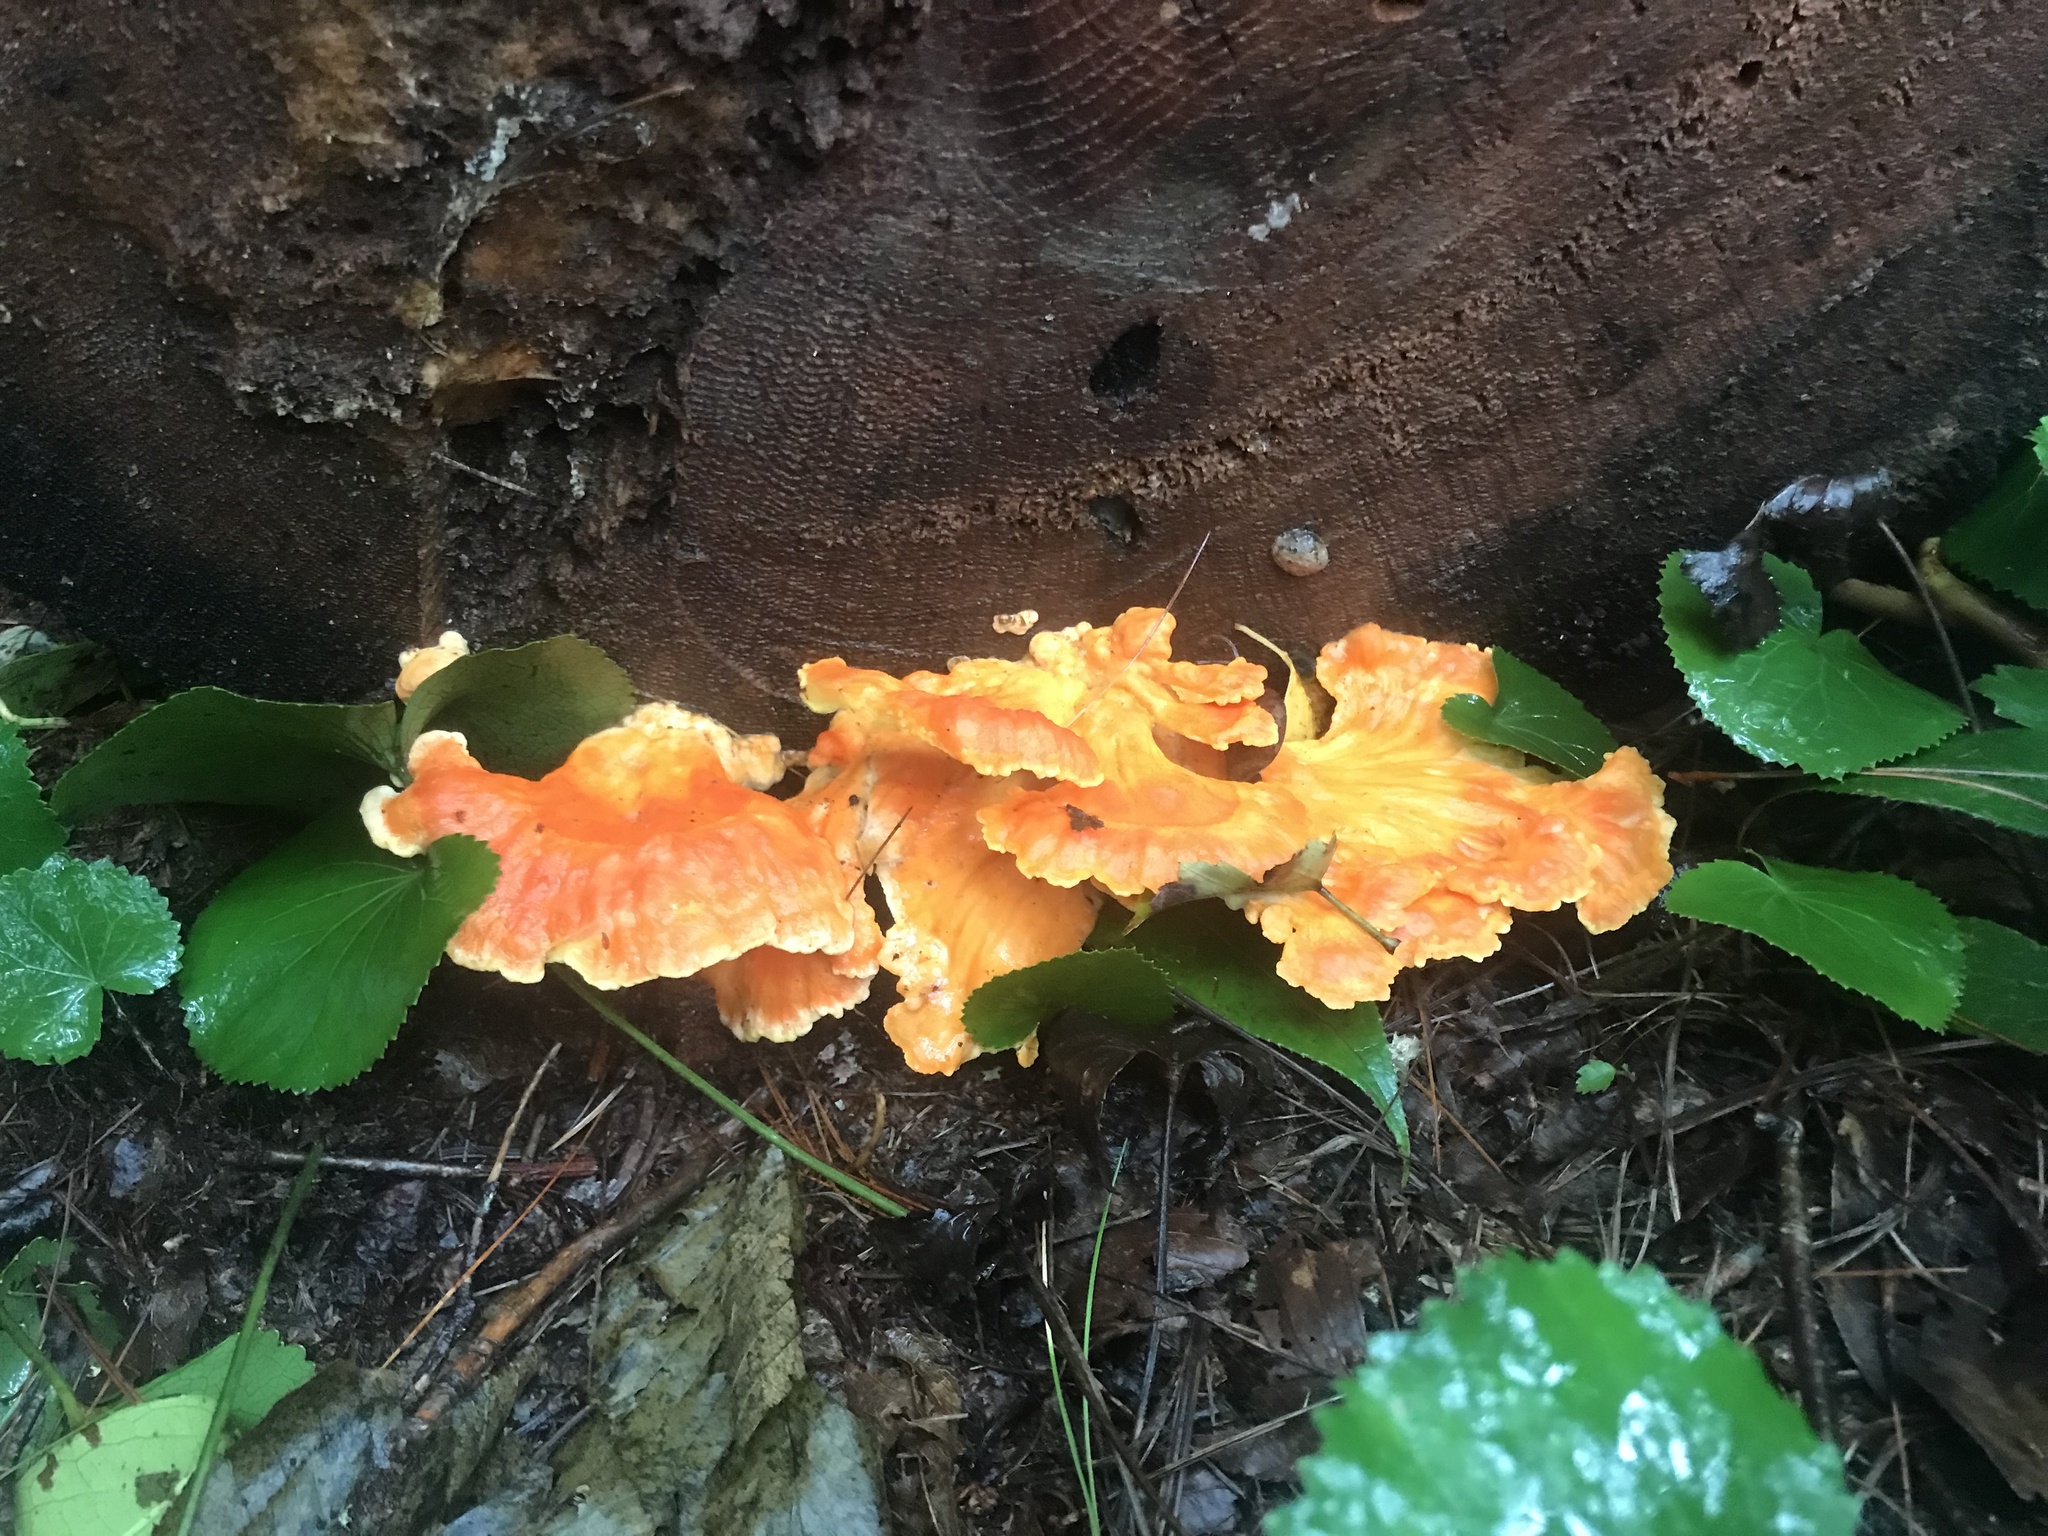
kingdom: Fungi
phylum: Basidiomycota
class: Agaricomycetes
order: Polyporales
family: Laetiporaceae
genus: Laetiporus
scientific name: Laetiporus sulphureus
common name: Chicken of the woods
